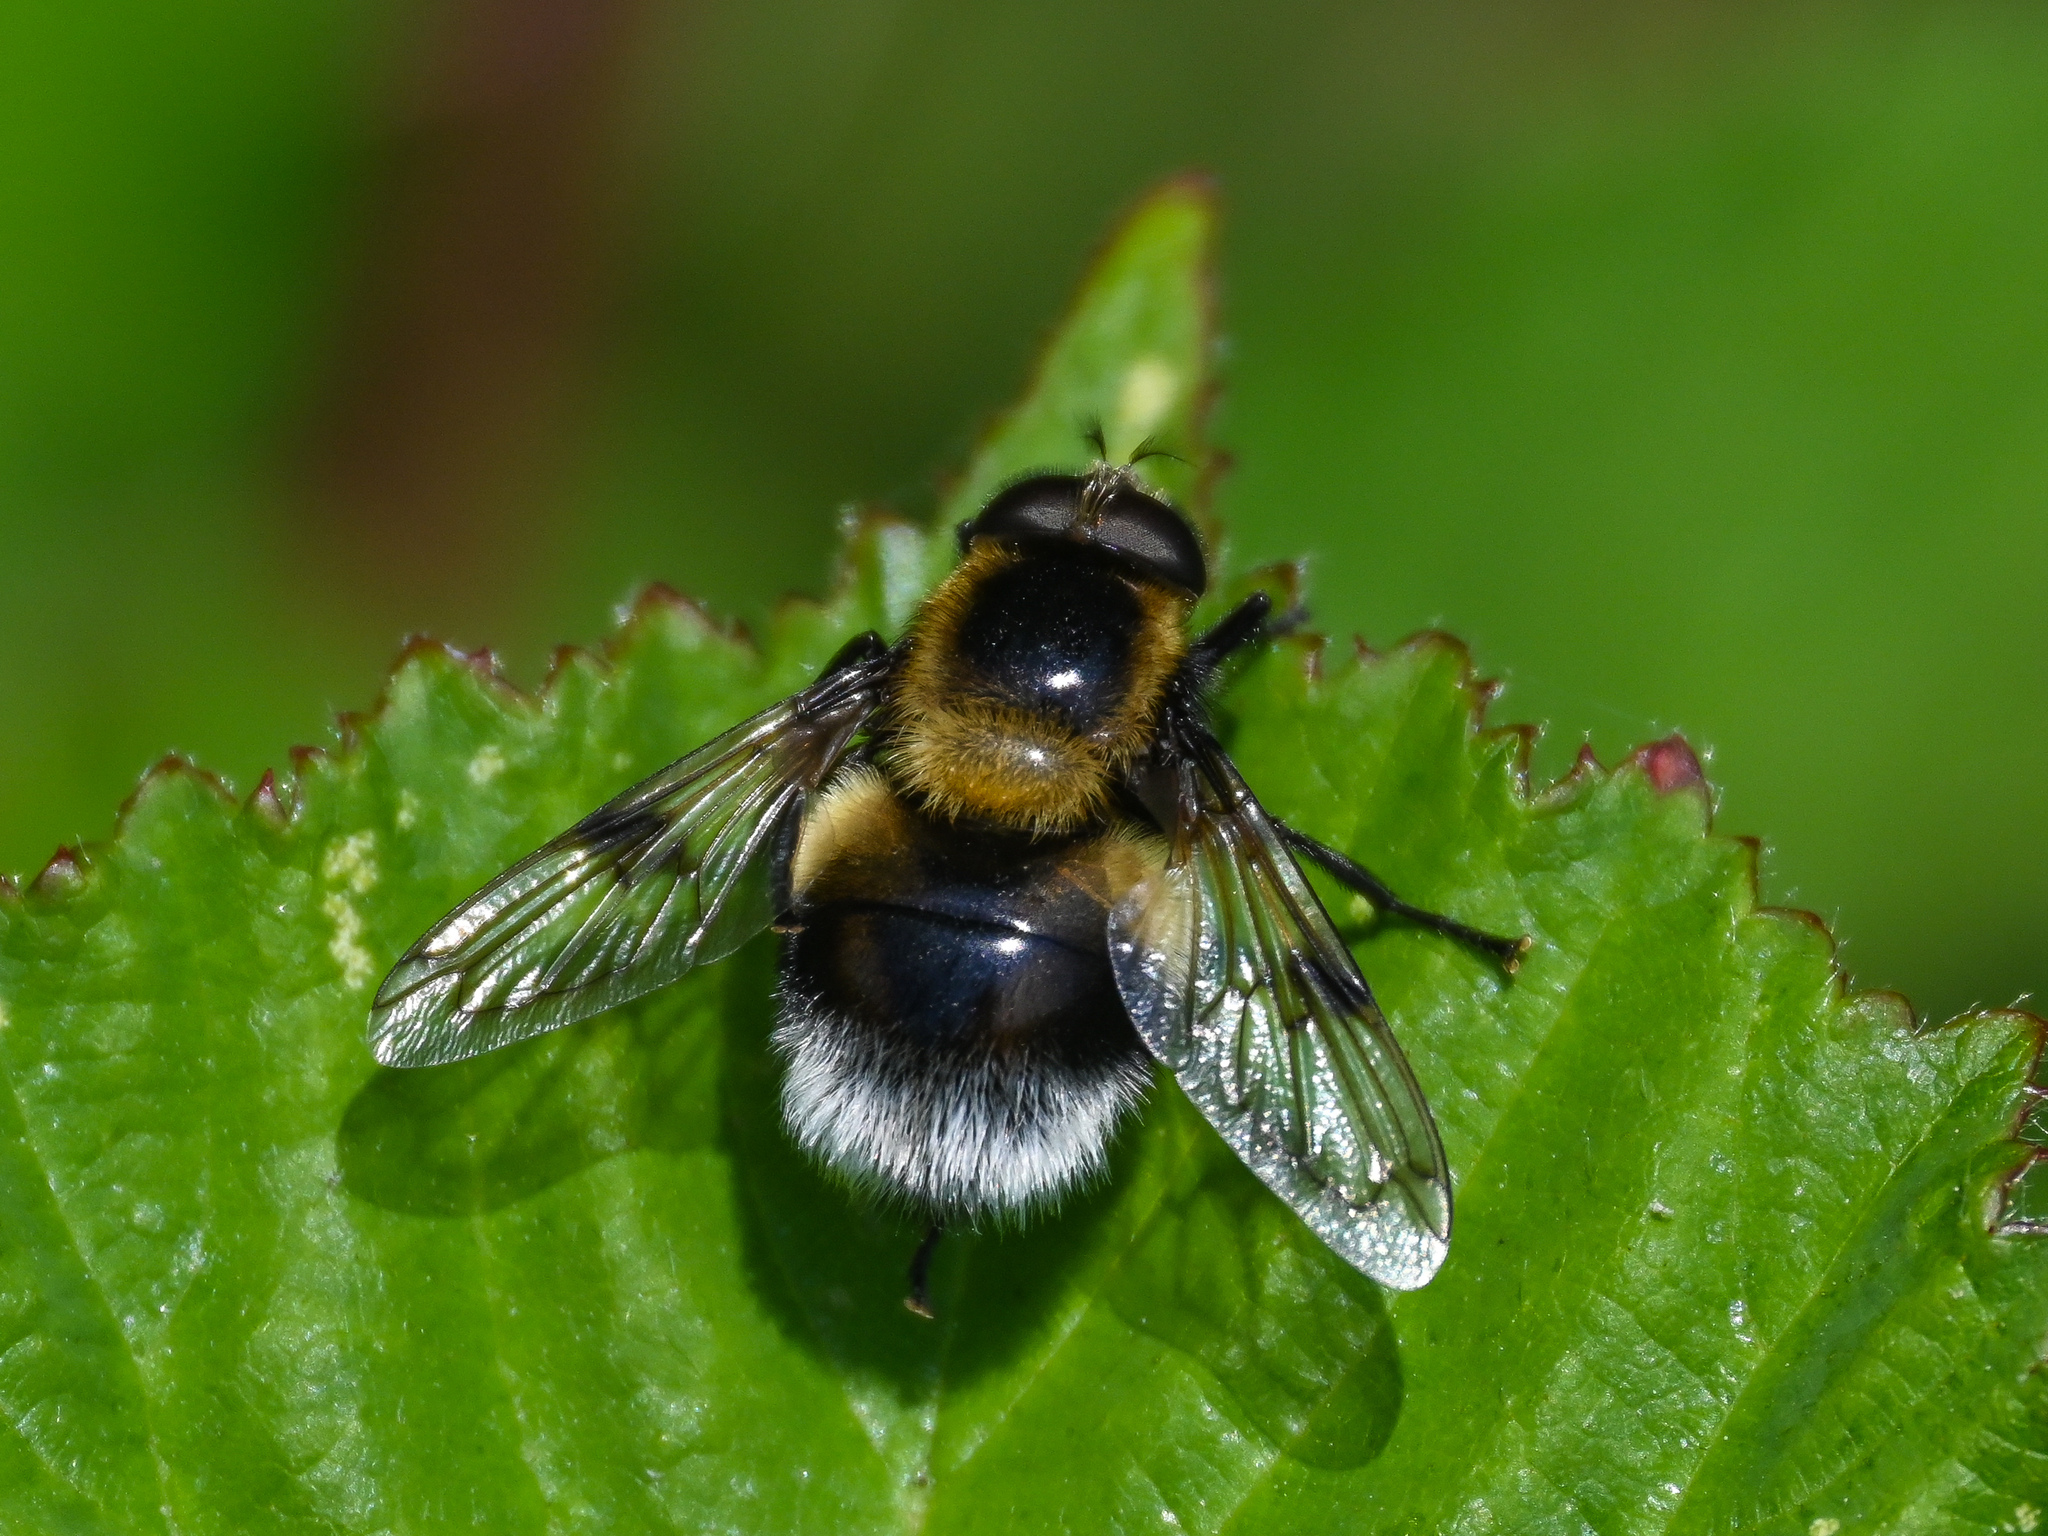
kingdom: Animalia
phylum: Arthropoda
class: Insecta
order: Diptera
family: Syrphidae
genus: Volucella
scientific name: Volucella bombylans
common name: Bumble bee hover fly
